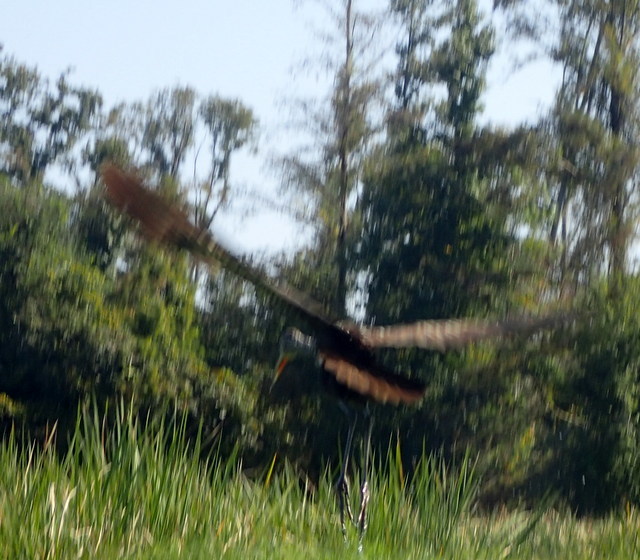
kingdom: Animalia
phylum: Chordata
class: Aves
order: Gruiformes
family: Aramidae
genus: Aramus
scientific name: Aramus guarauna
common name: Limpkin
